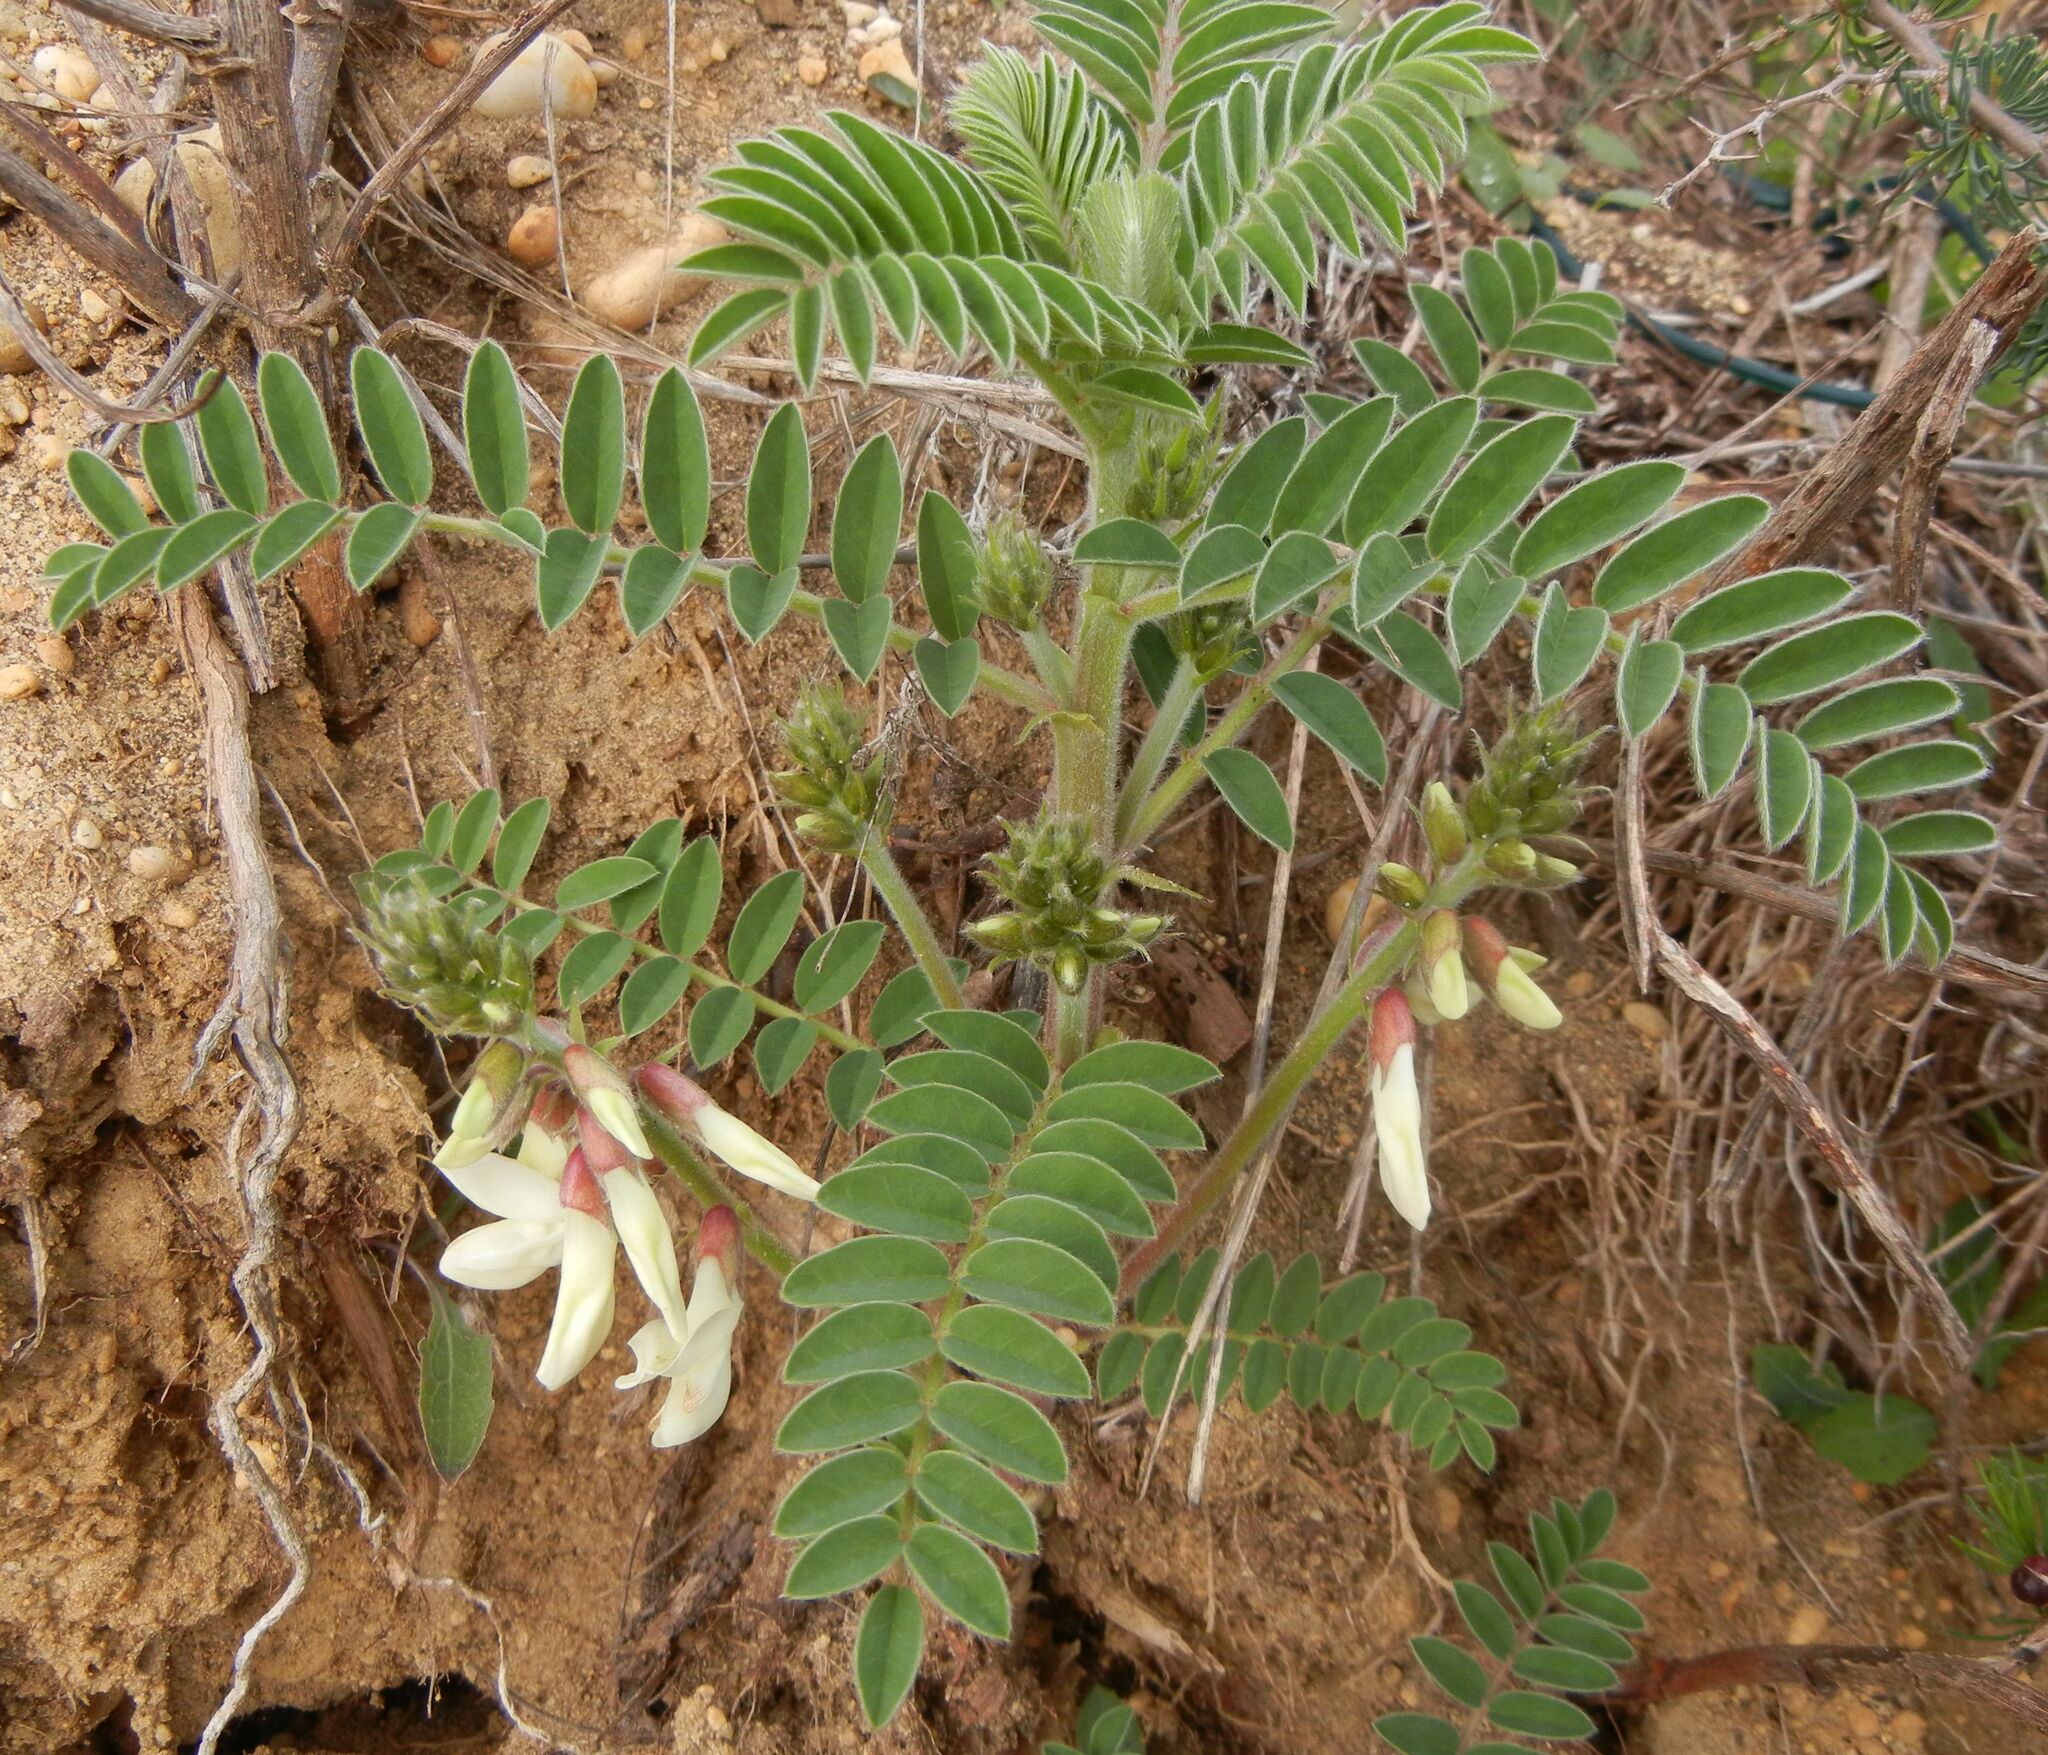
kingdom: Plantae
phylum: Tracheophyta
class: Magnoliopsida
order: Fabales
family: Fabaceae
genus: Erophaca
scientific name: Erophaca baetica
